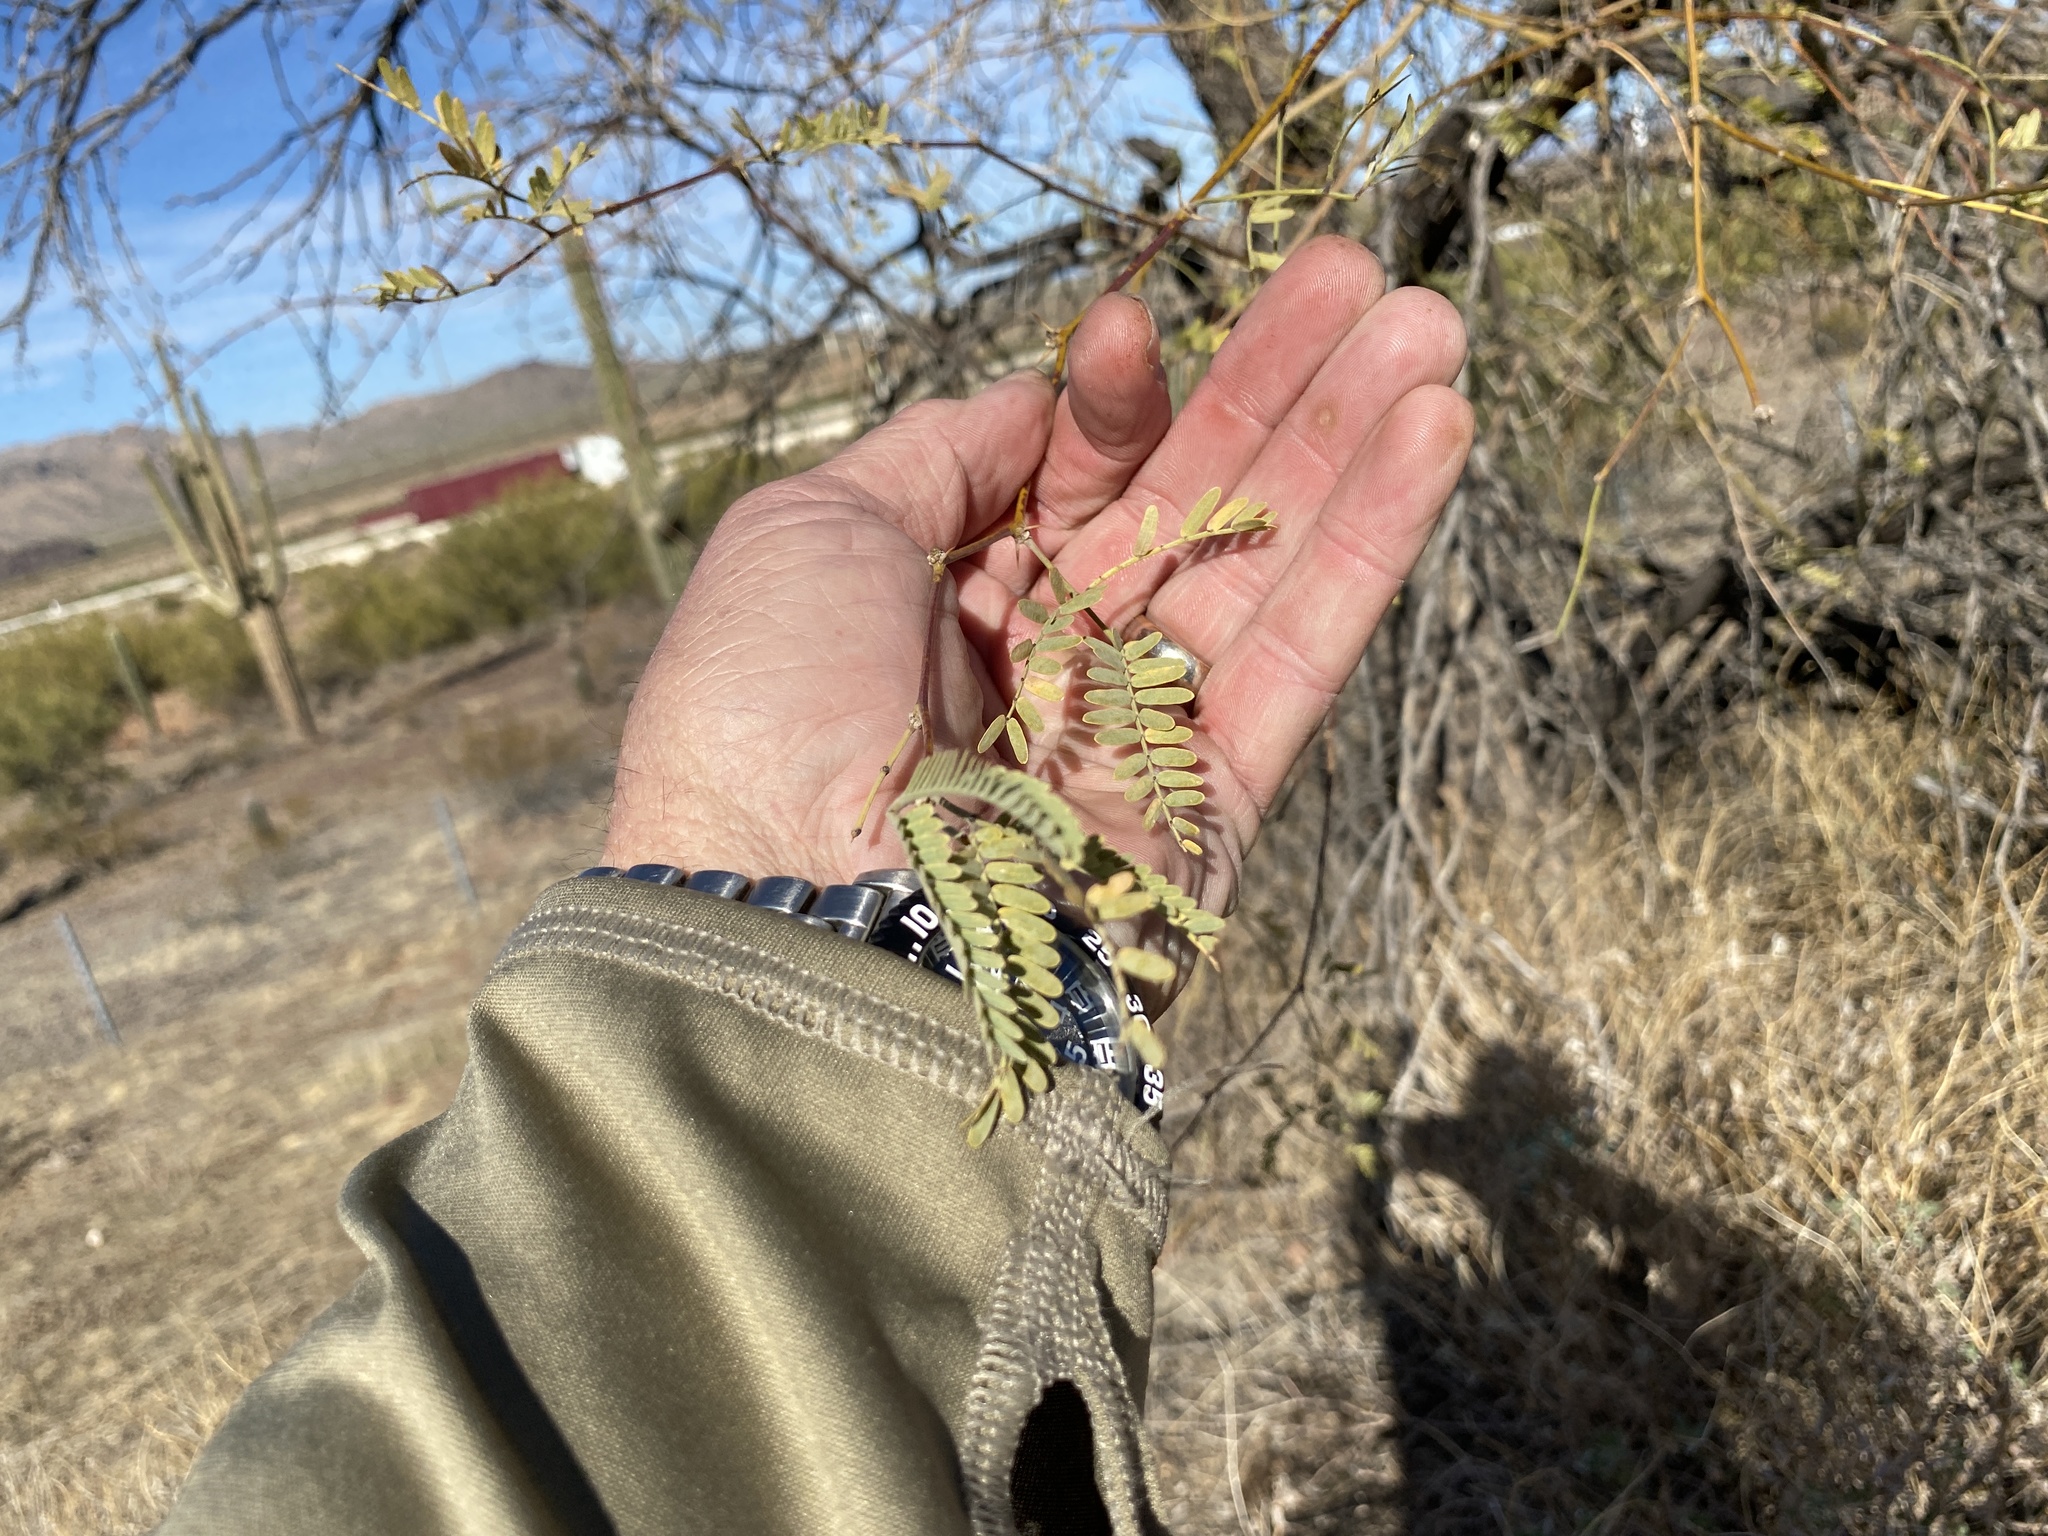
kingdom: Plantae
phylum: Tracheophyta
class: Magnoliopsida
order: Fabales
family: Fabaceae
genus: Prosopis
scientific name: Prosopis velutina
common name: Velvet mesquite
